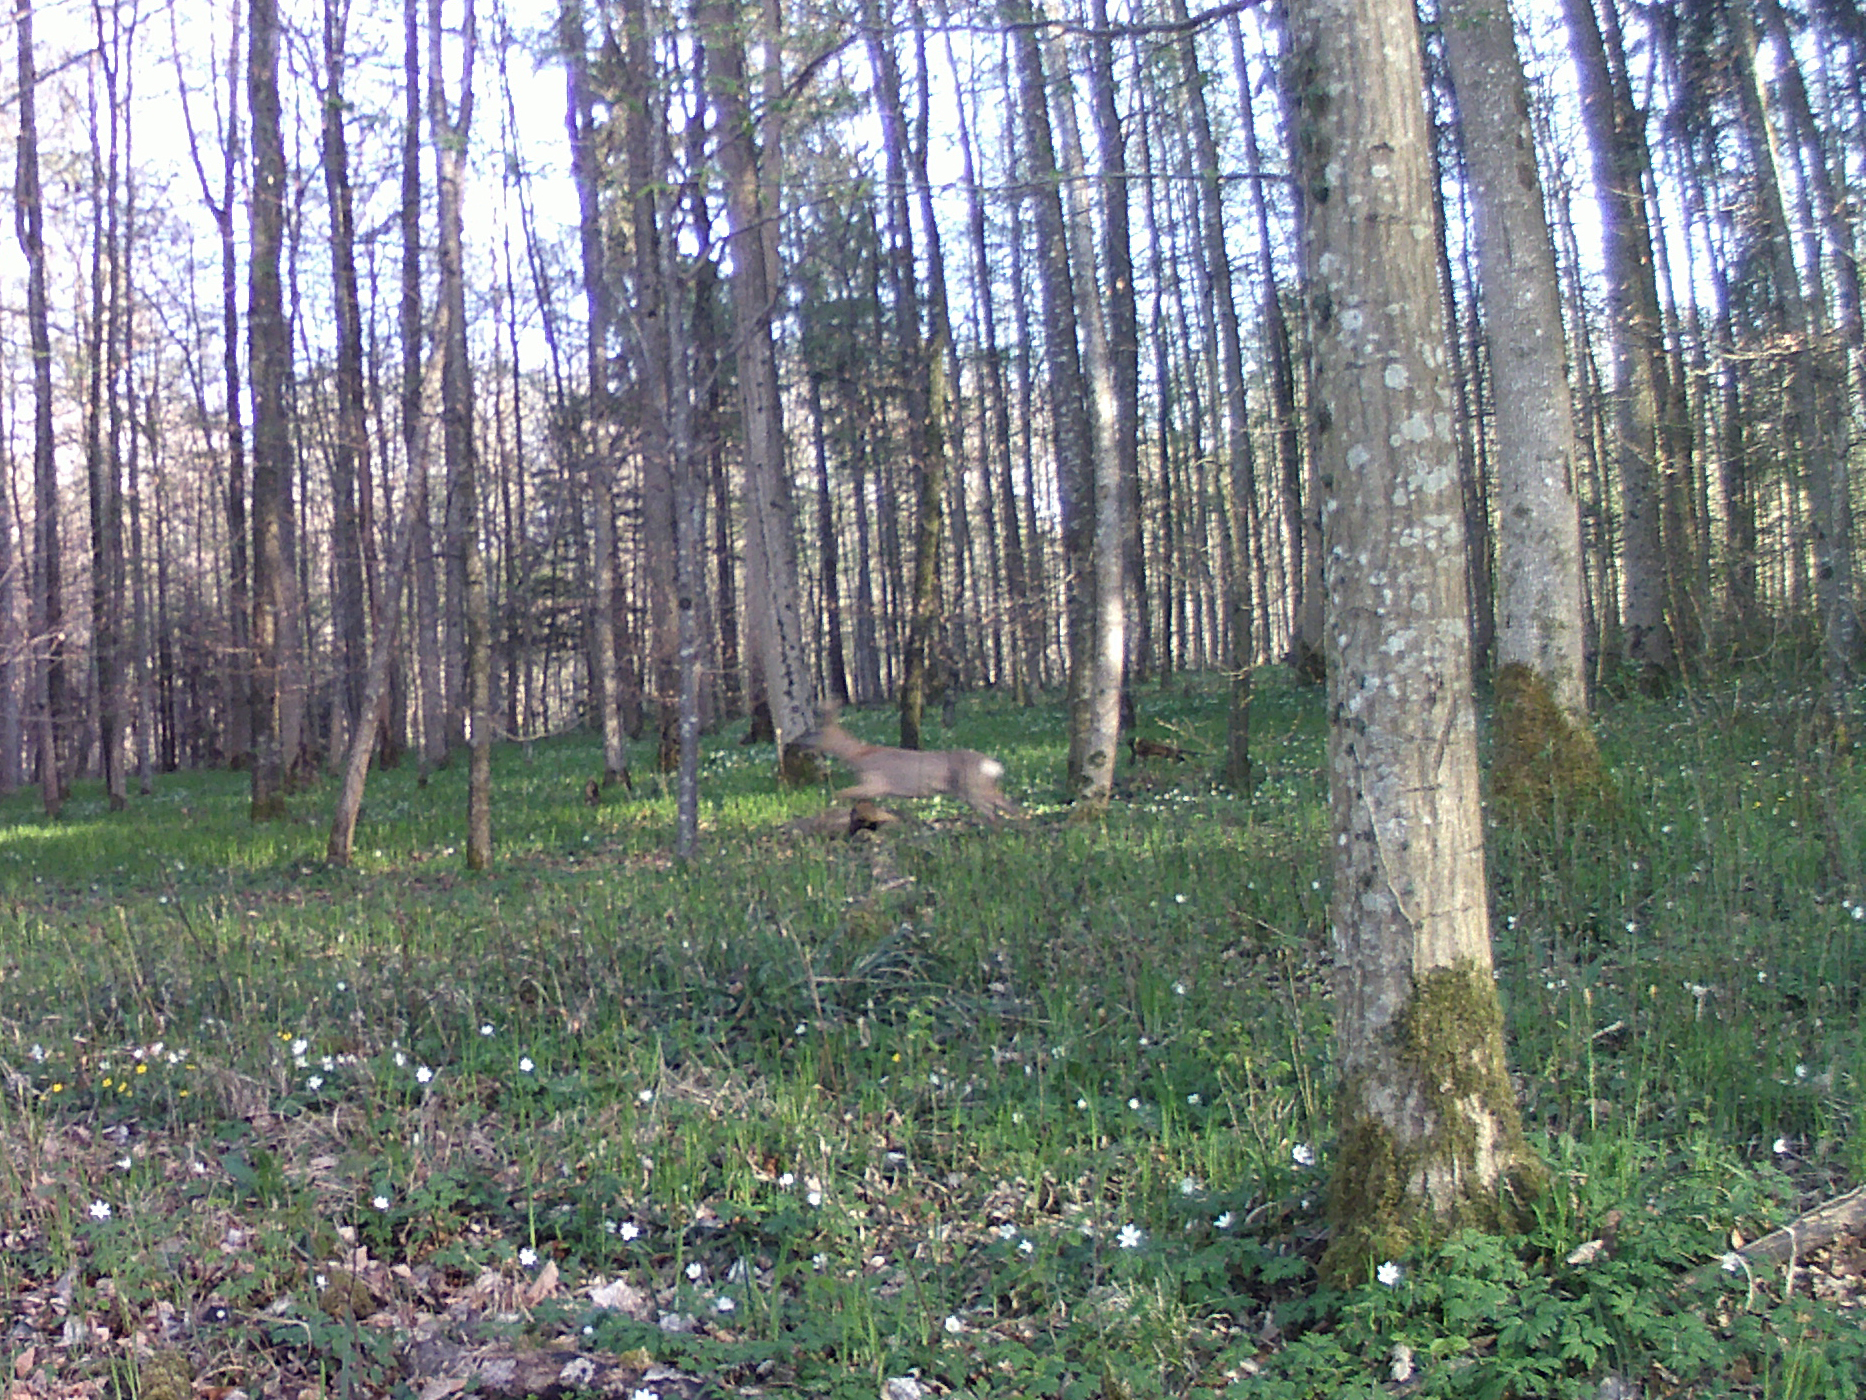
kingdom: Animalia
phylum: Chordata
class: Mammalia
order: Artiodactyla
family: Cervidae
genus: Capreolus
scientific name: Capreolus capreolus
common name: Western roe deer
